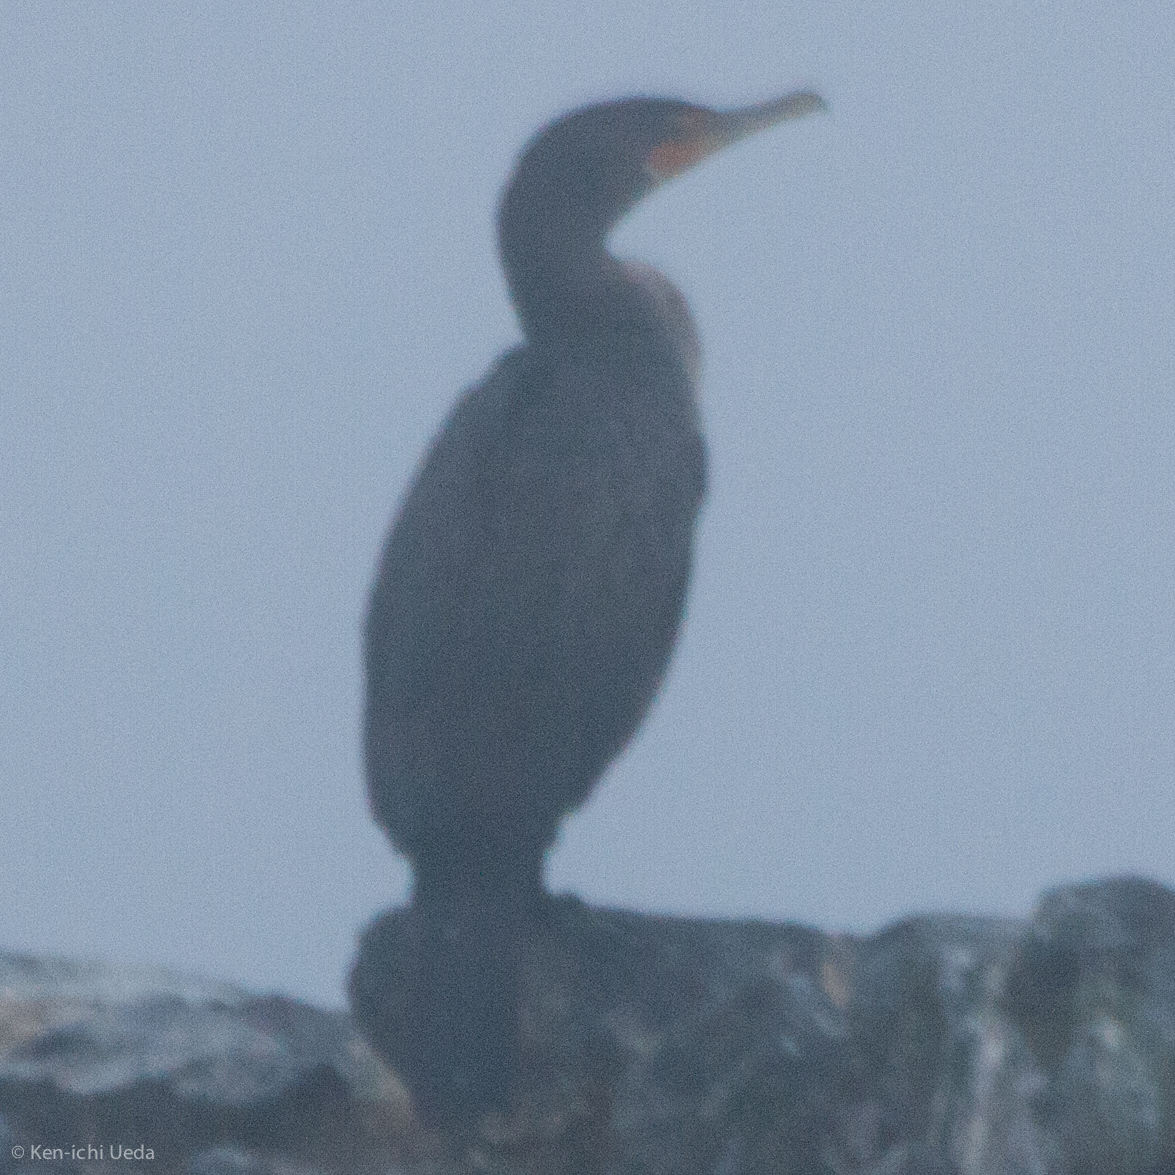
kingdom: Animalia
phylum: Chordata
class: Aves
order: Suliformes
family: Phalacrocoracidae
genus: Phalacrocorax
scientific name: Phalacrocorax auritus
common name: Double-crested cormorant
